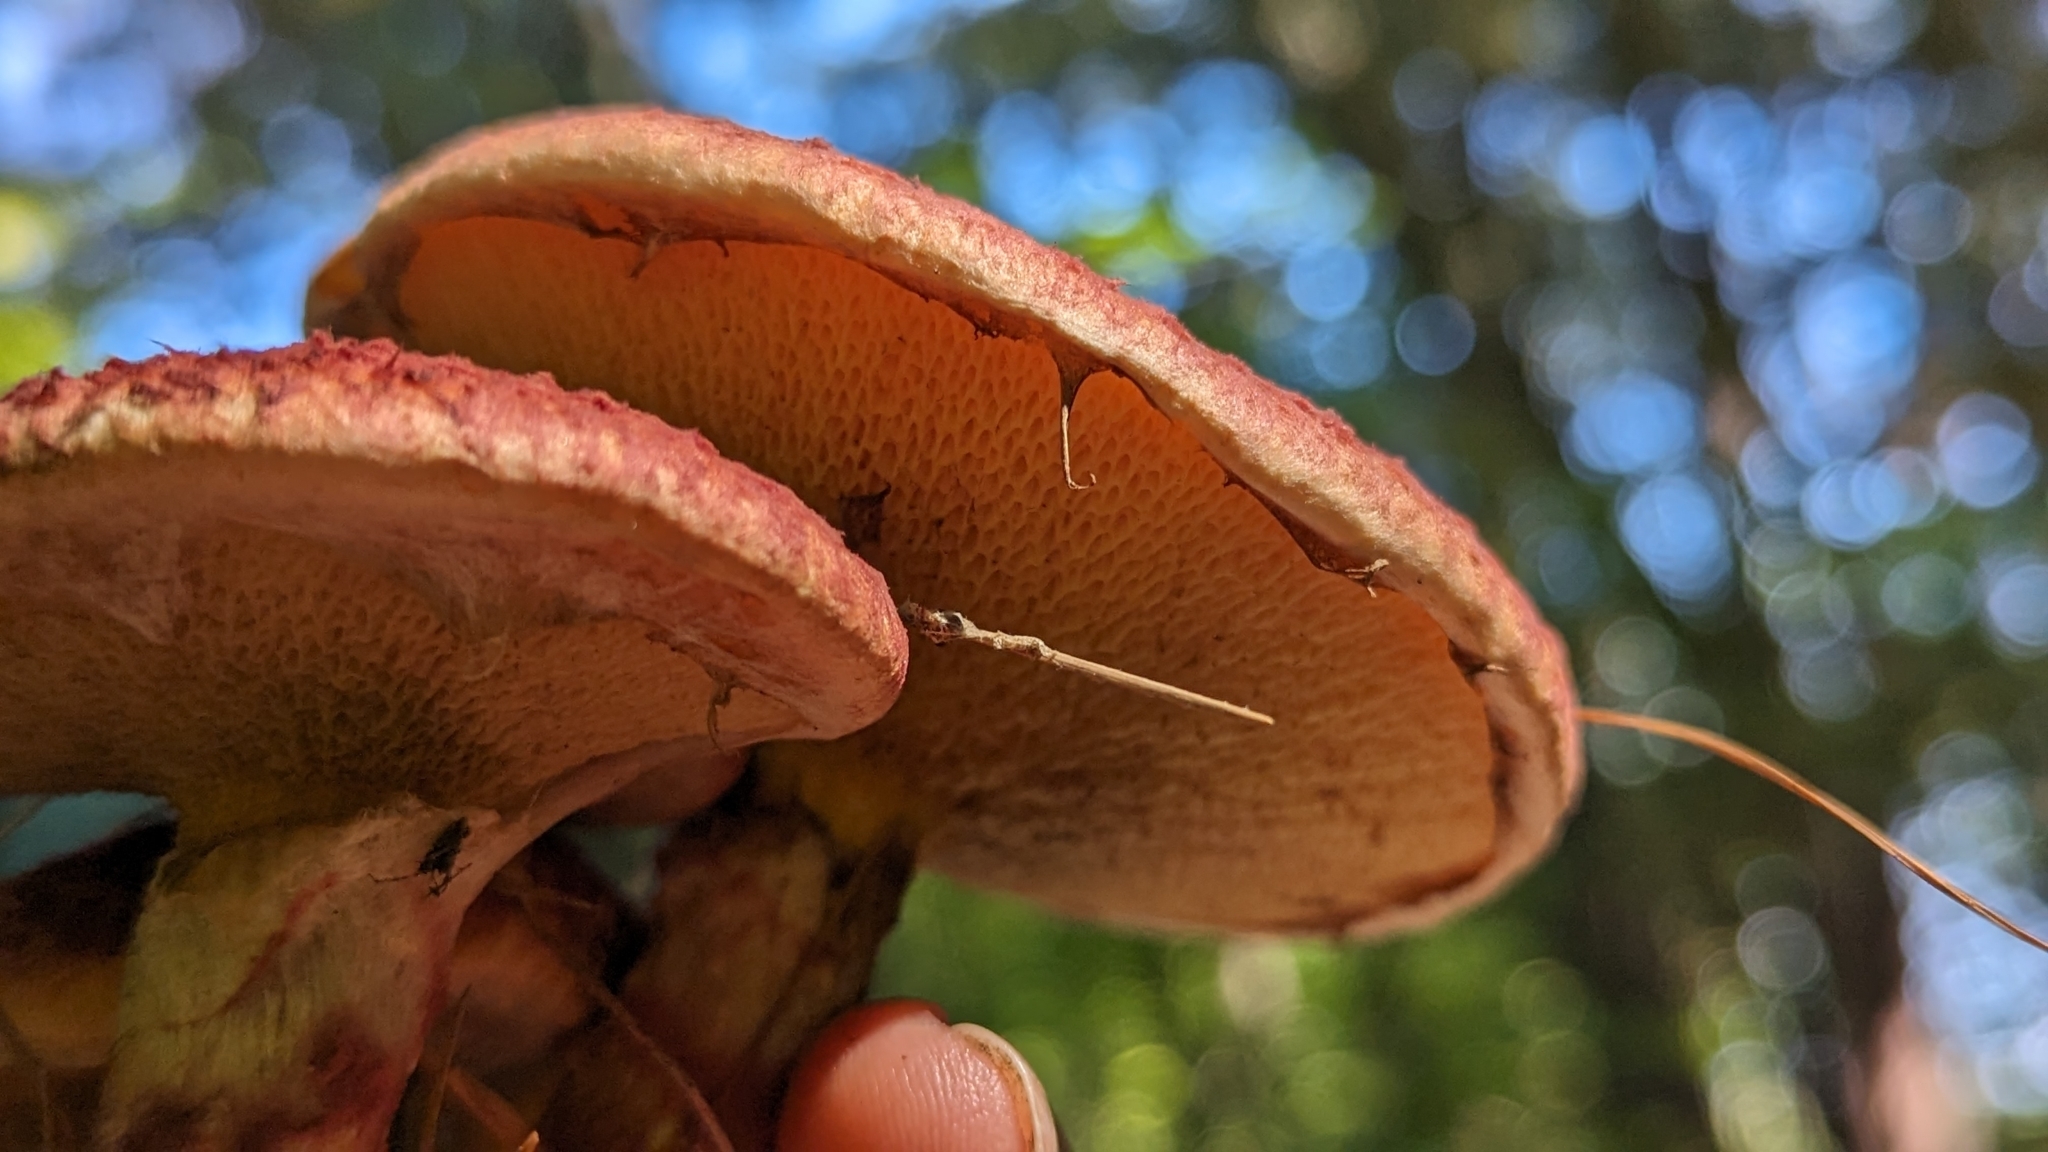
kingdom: Fungi
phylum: Basidiomycota
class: Agaricomycetes
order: Boletales
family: Suillaceae
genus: Suillus
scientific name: Suillus spraguei
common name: Painted suillus
